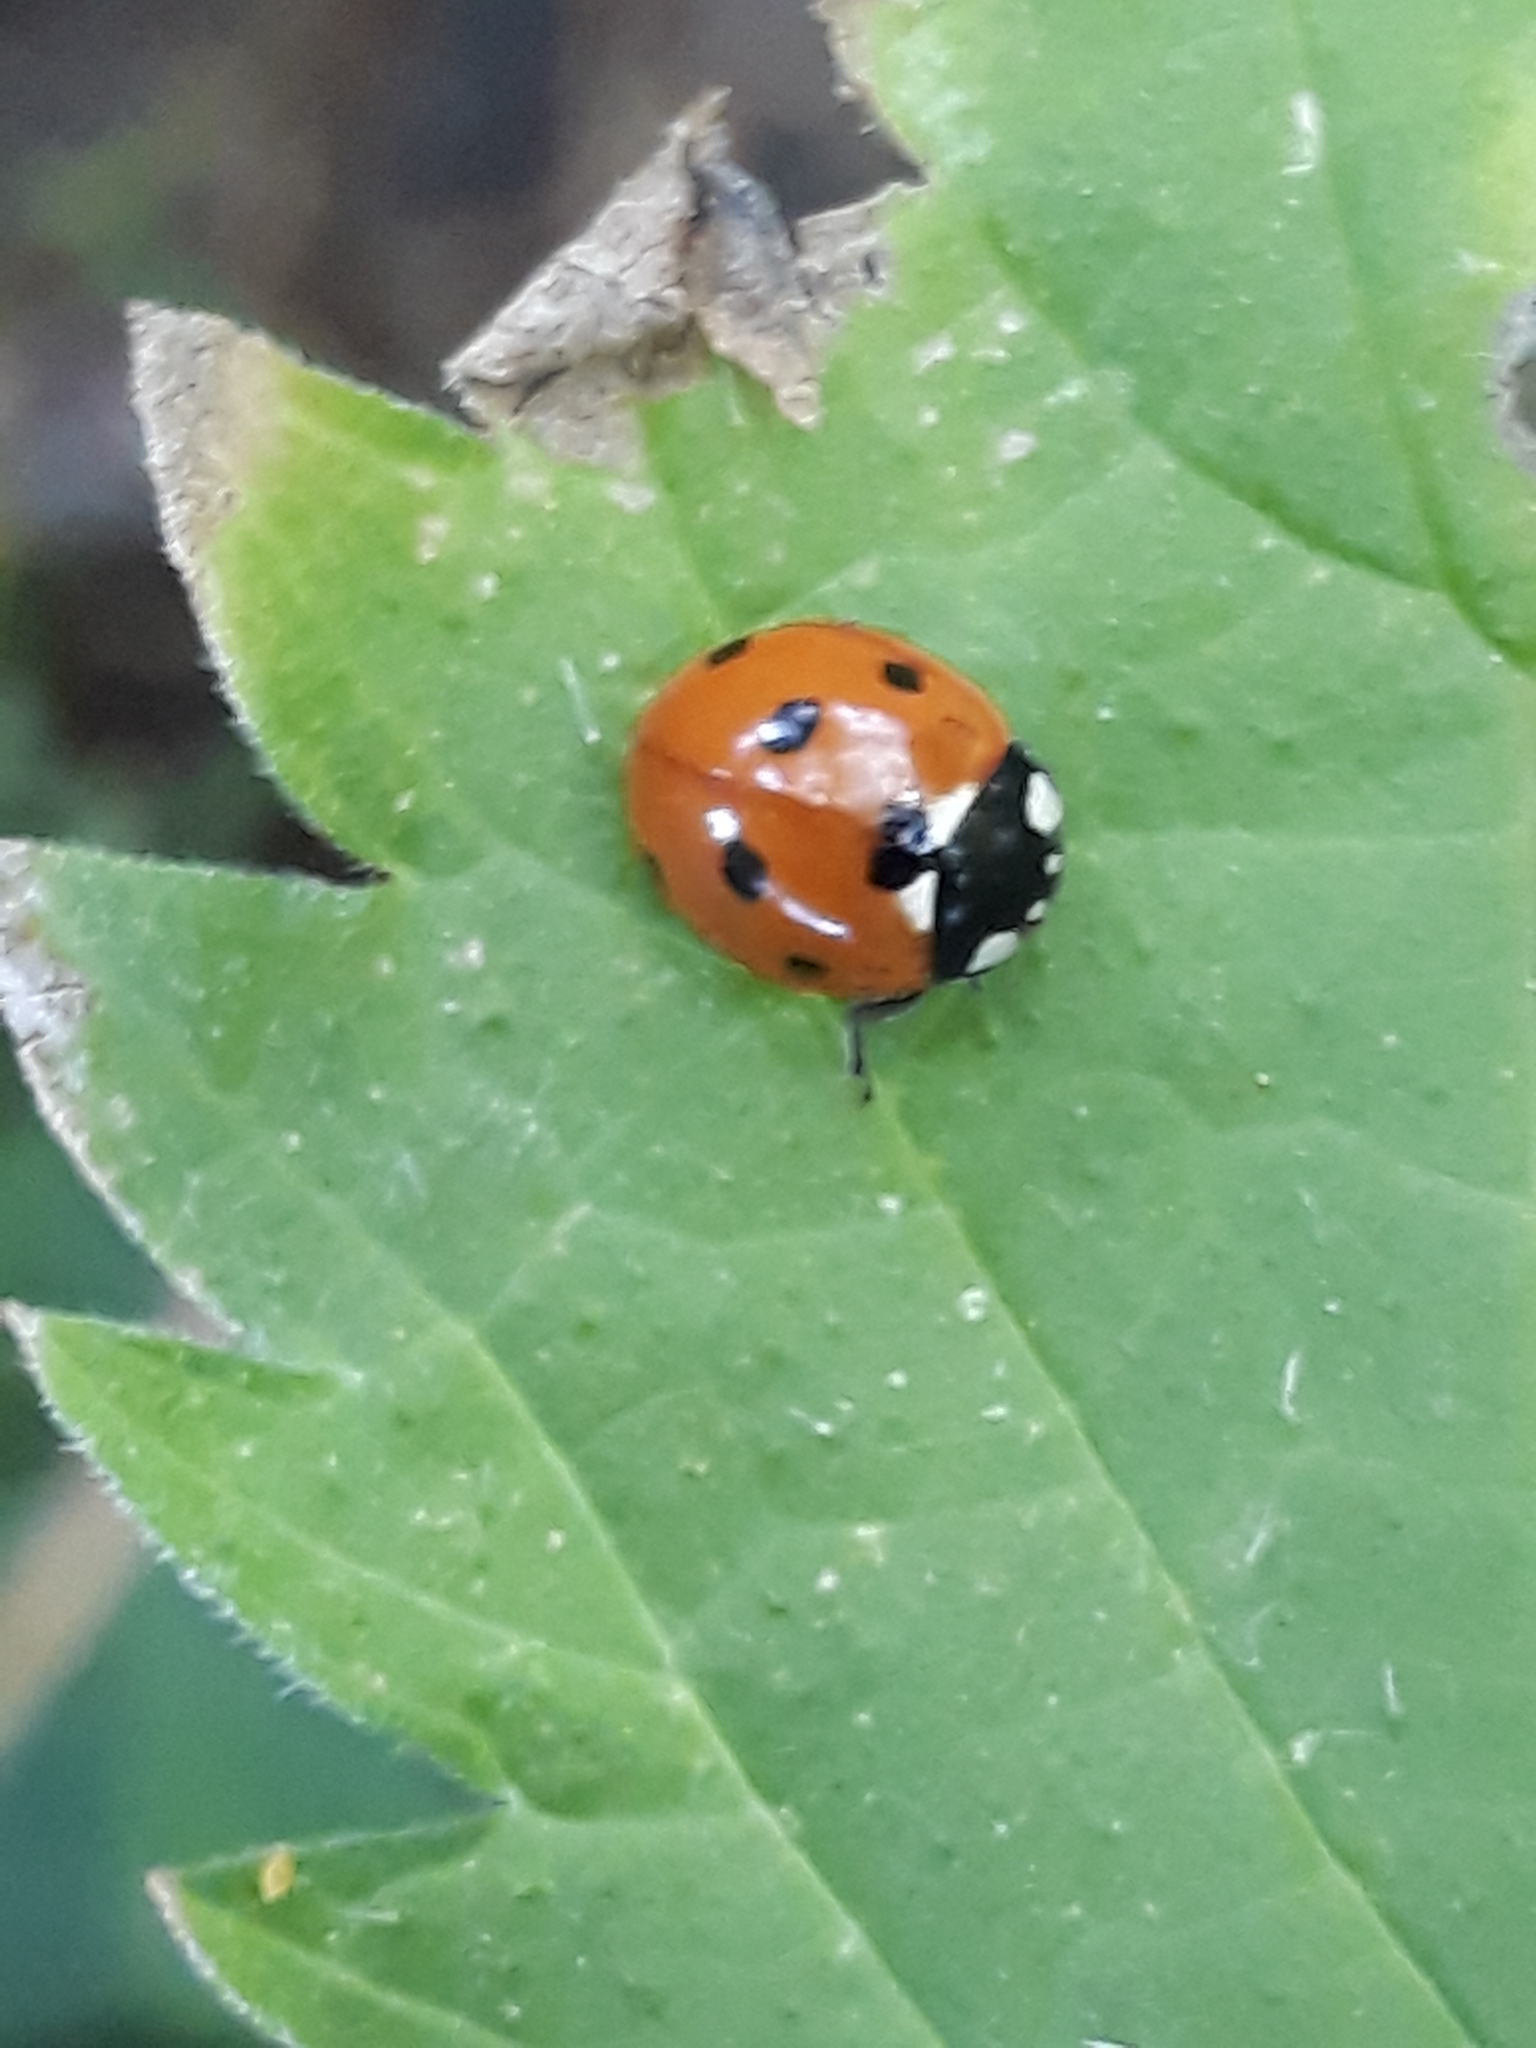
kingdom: Animalia
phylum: Arthropoda
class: Insecta
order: Coleoptera
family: Coccinellidae
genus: Coccinella
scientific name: Coccinella septempunctata
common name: Sevenspotted lady beetle
